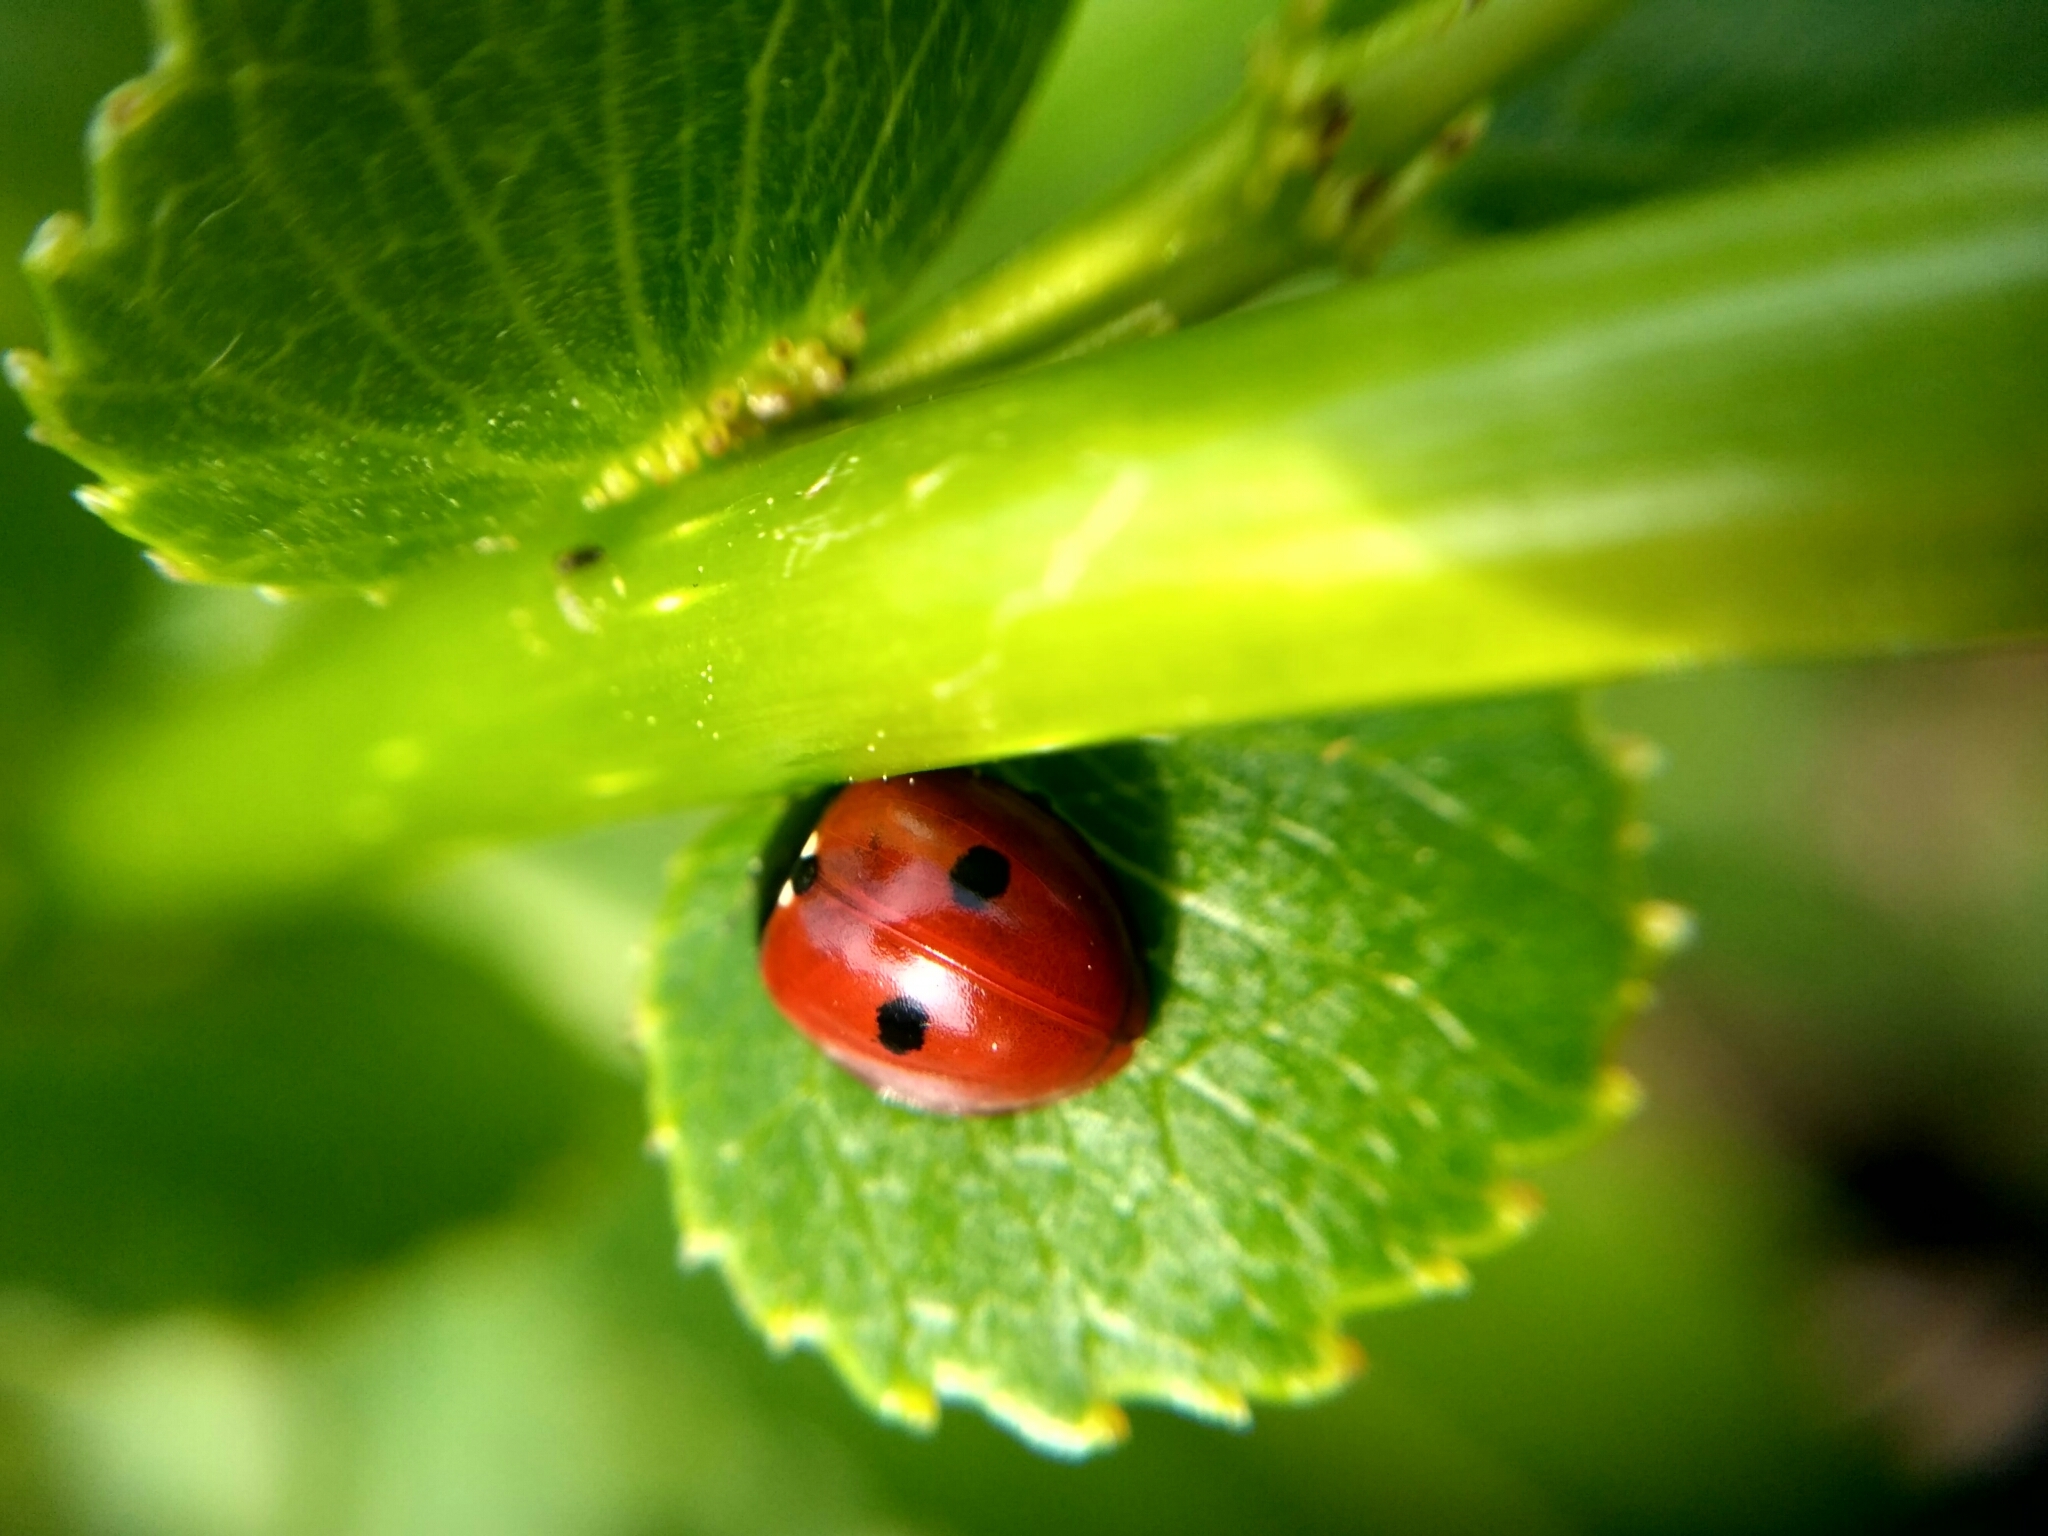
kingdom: Animalia
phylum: Arthropoda
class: Insecta
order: Coleoptera
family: Coccinellidae
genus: Coccinella
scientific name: Coccinella saucerottii
